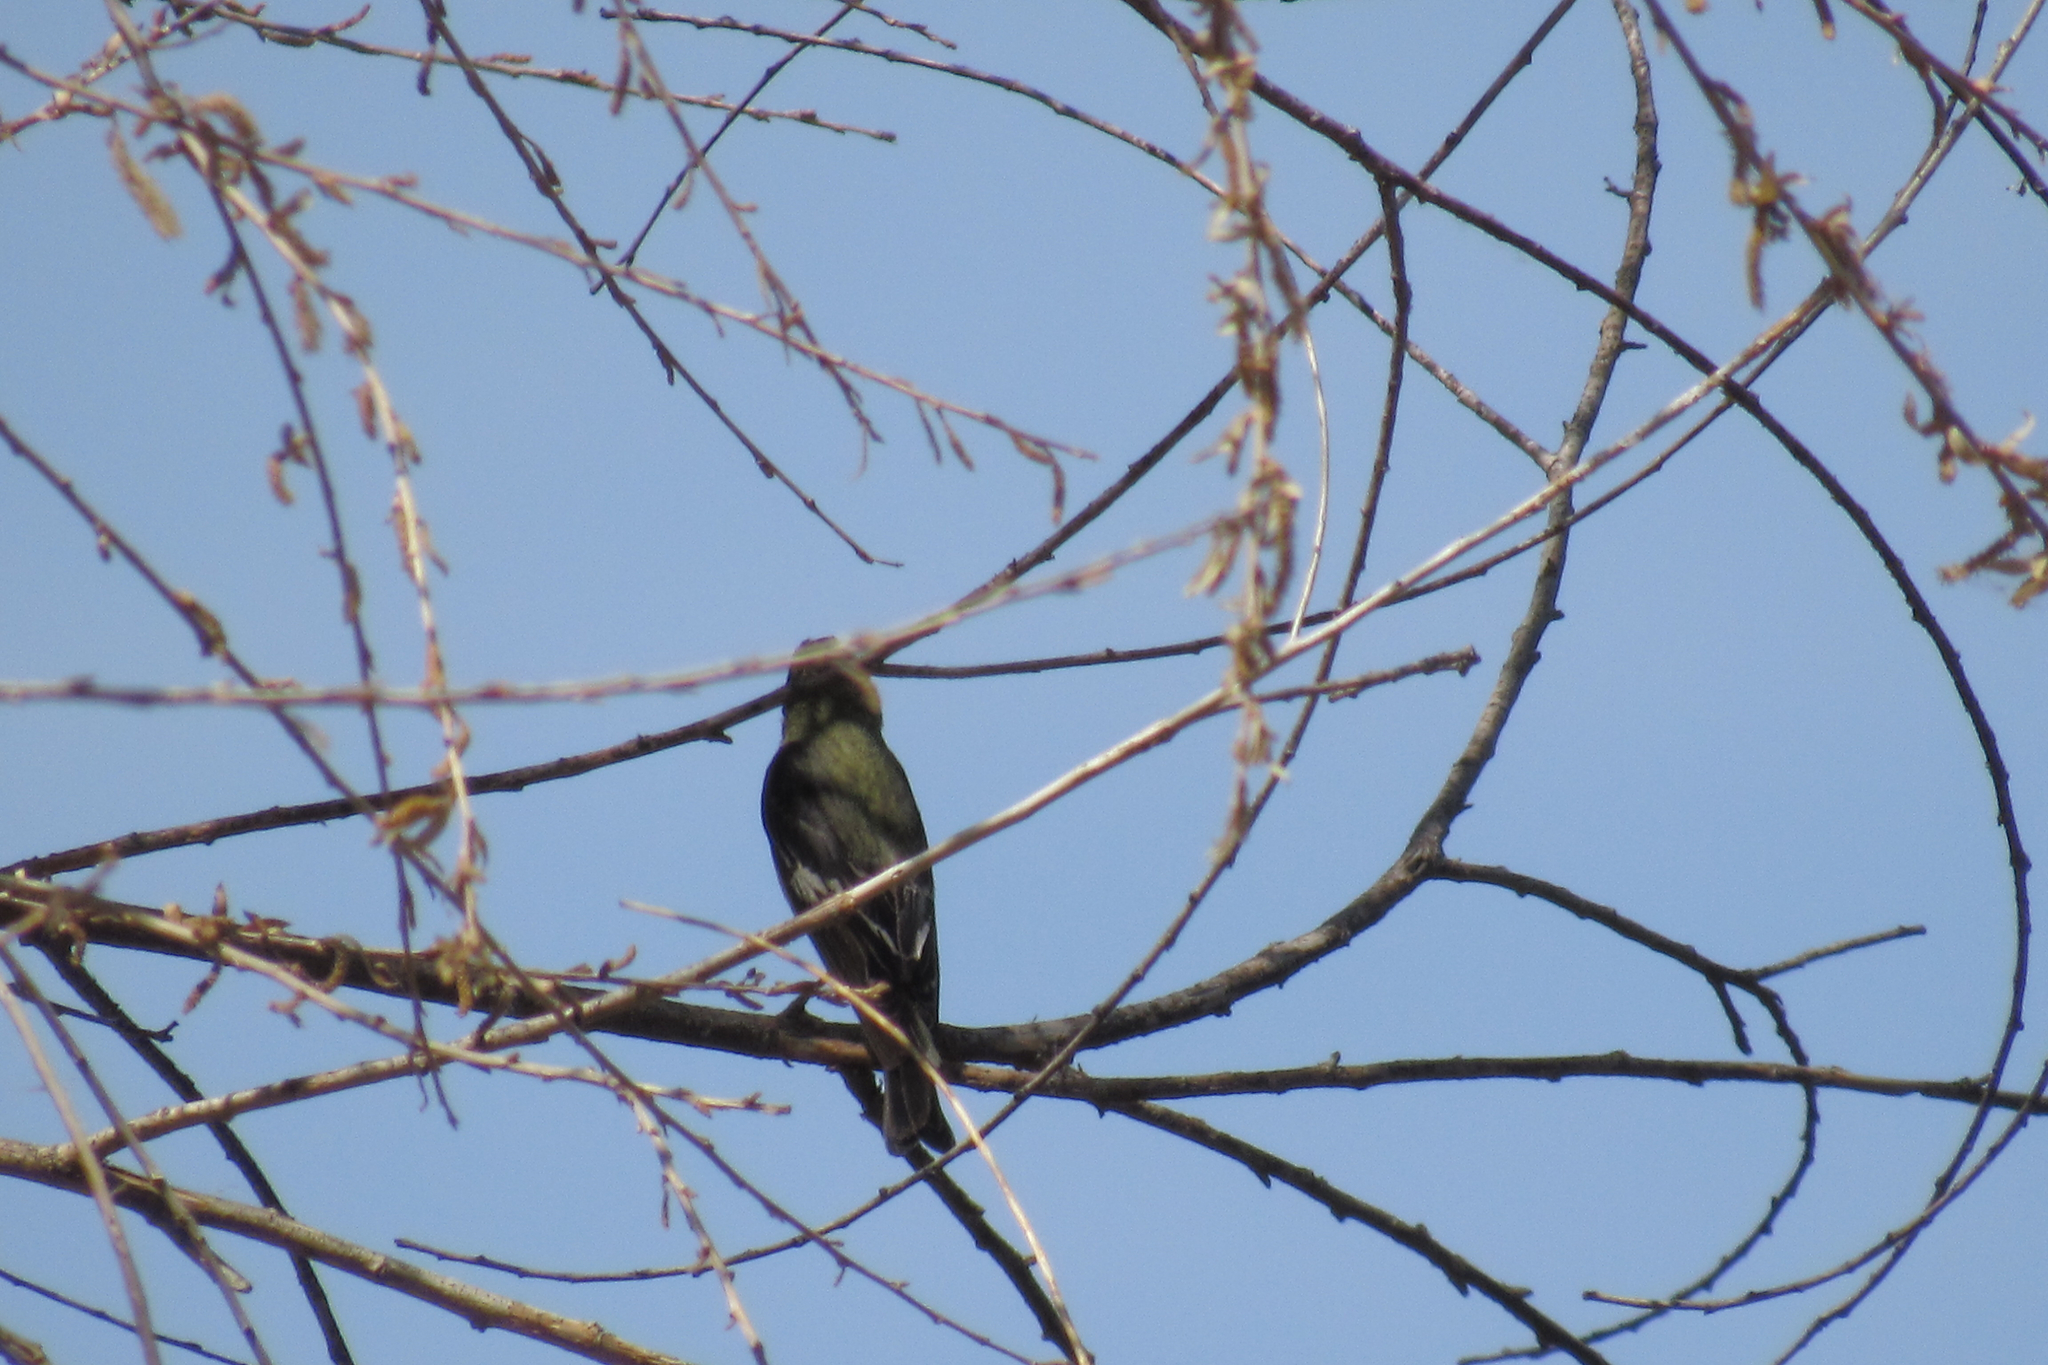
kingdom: Animalia
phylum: Chordata
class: Aves
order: Passeriformes
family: Fringillidae
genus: Spinus
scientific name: Spinus psaltria
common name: Lesser goldfinch
